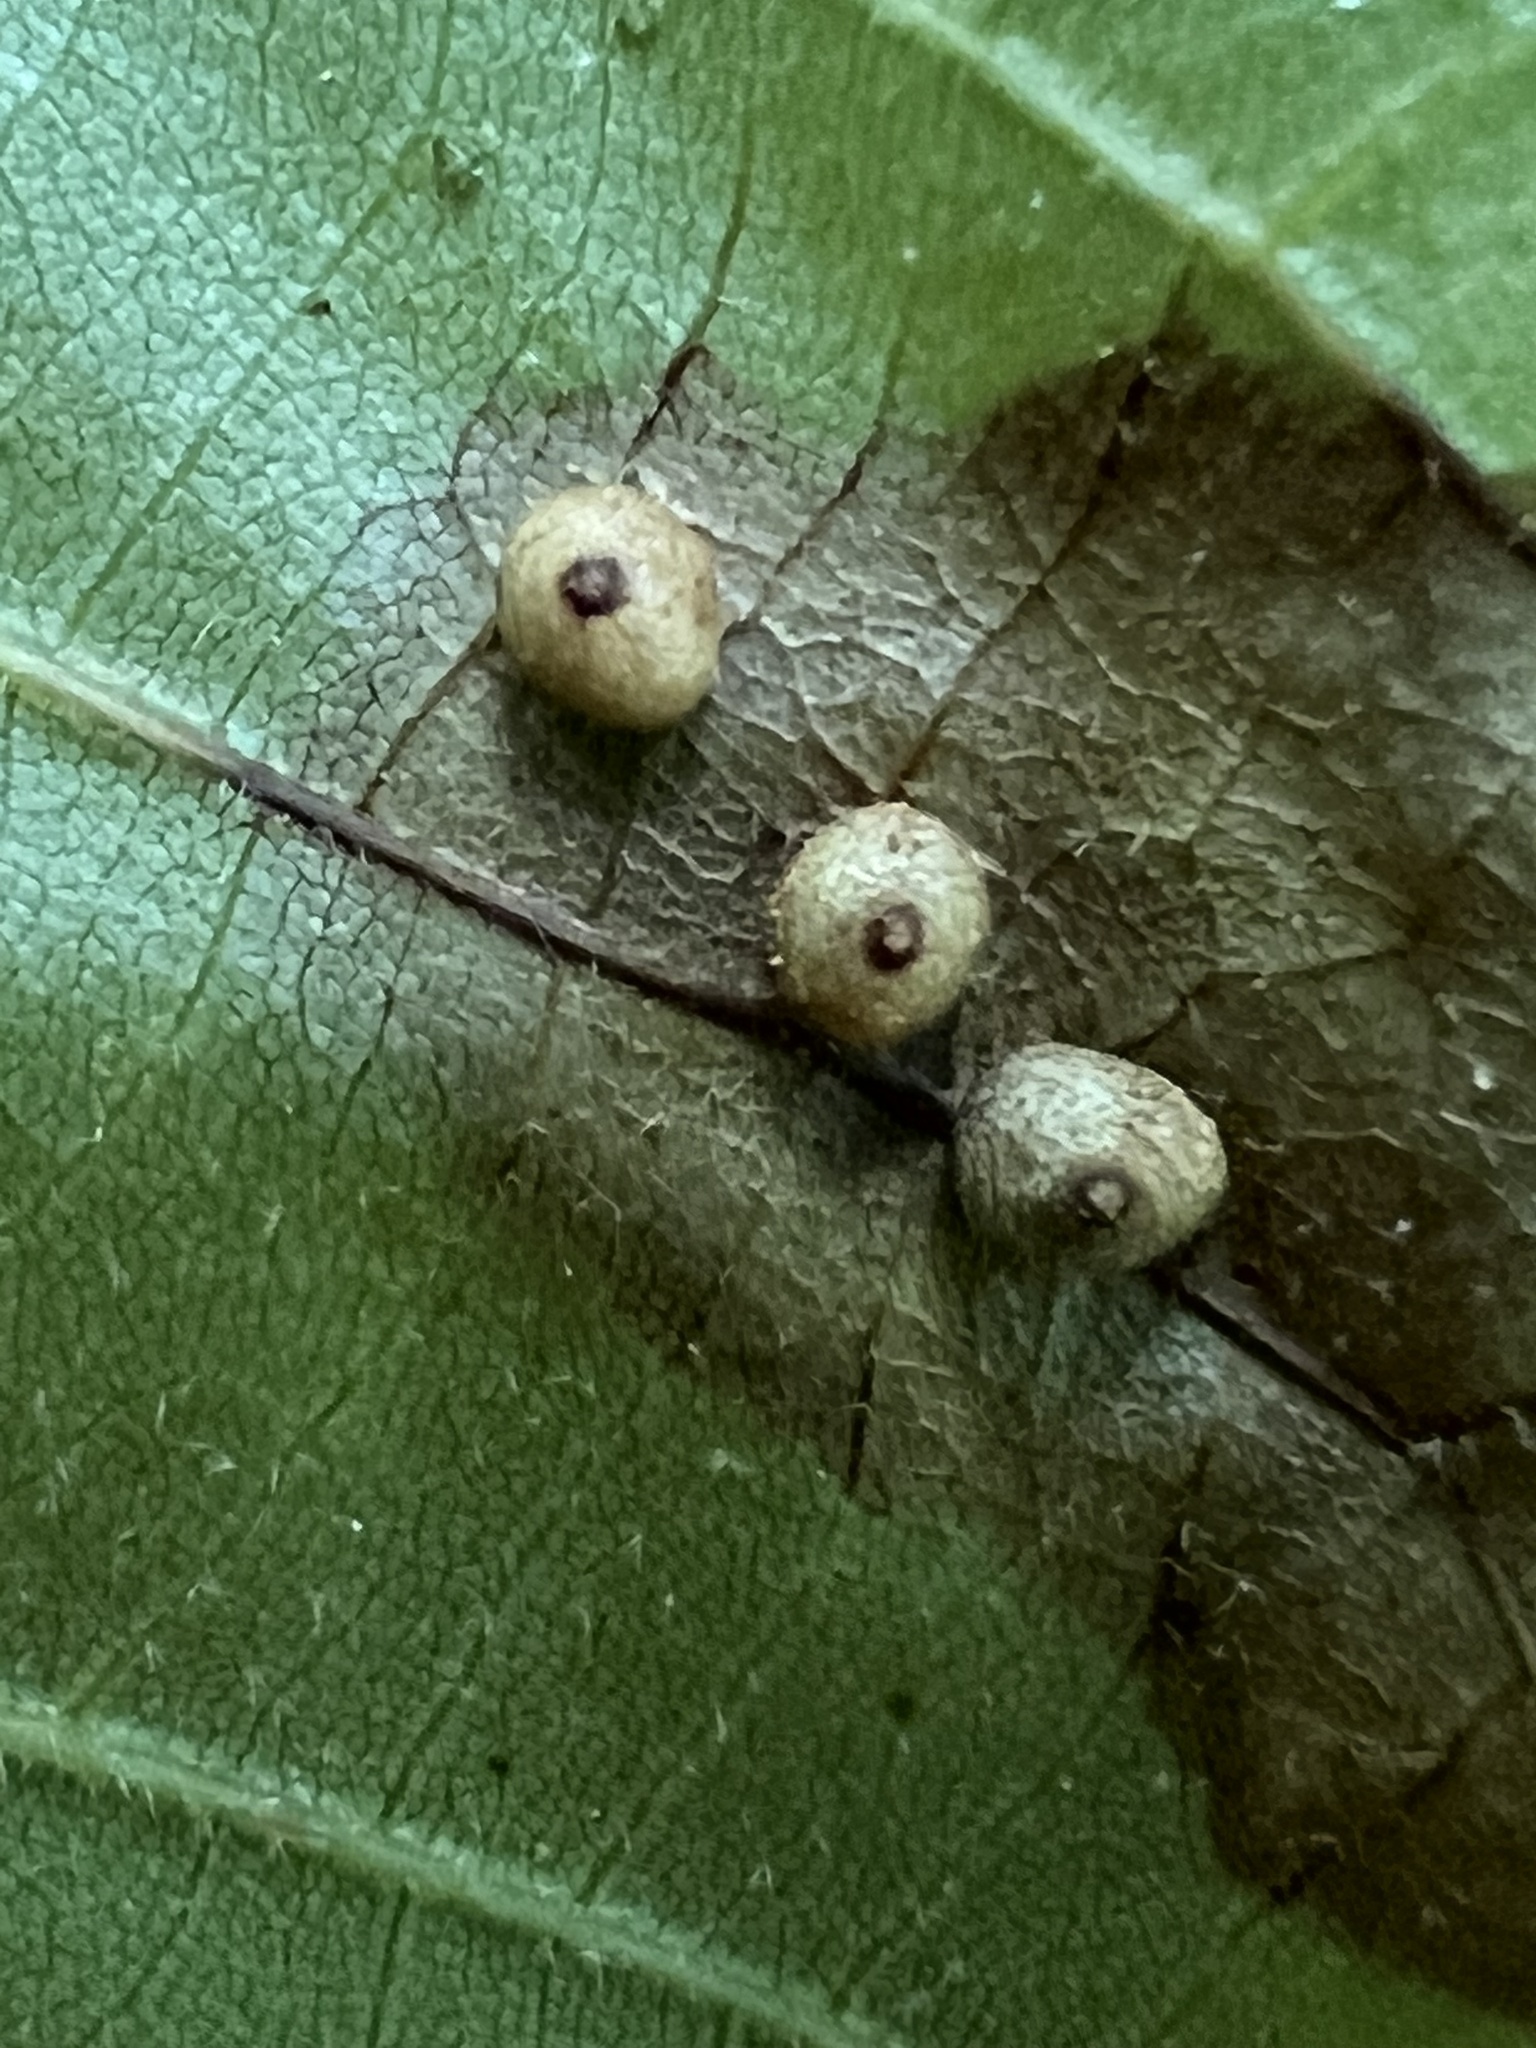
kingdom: Animalia
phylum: Arthropoda
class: Insecta
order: Diptera
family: Cecidomyiidae
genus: Caryomyia
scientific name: Caryomyia caryae
